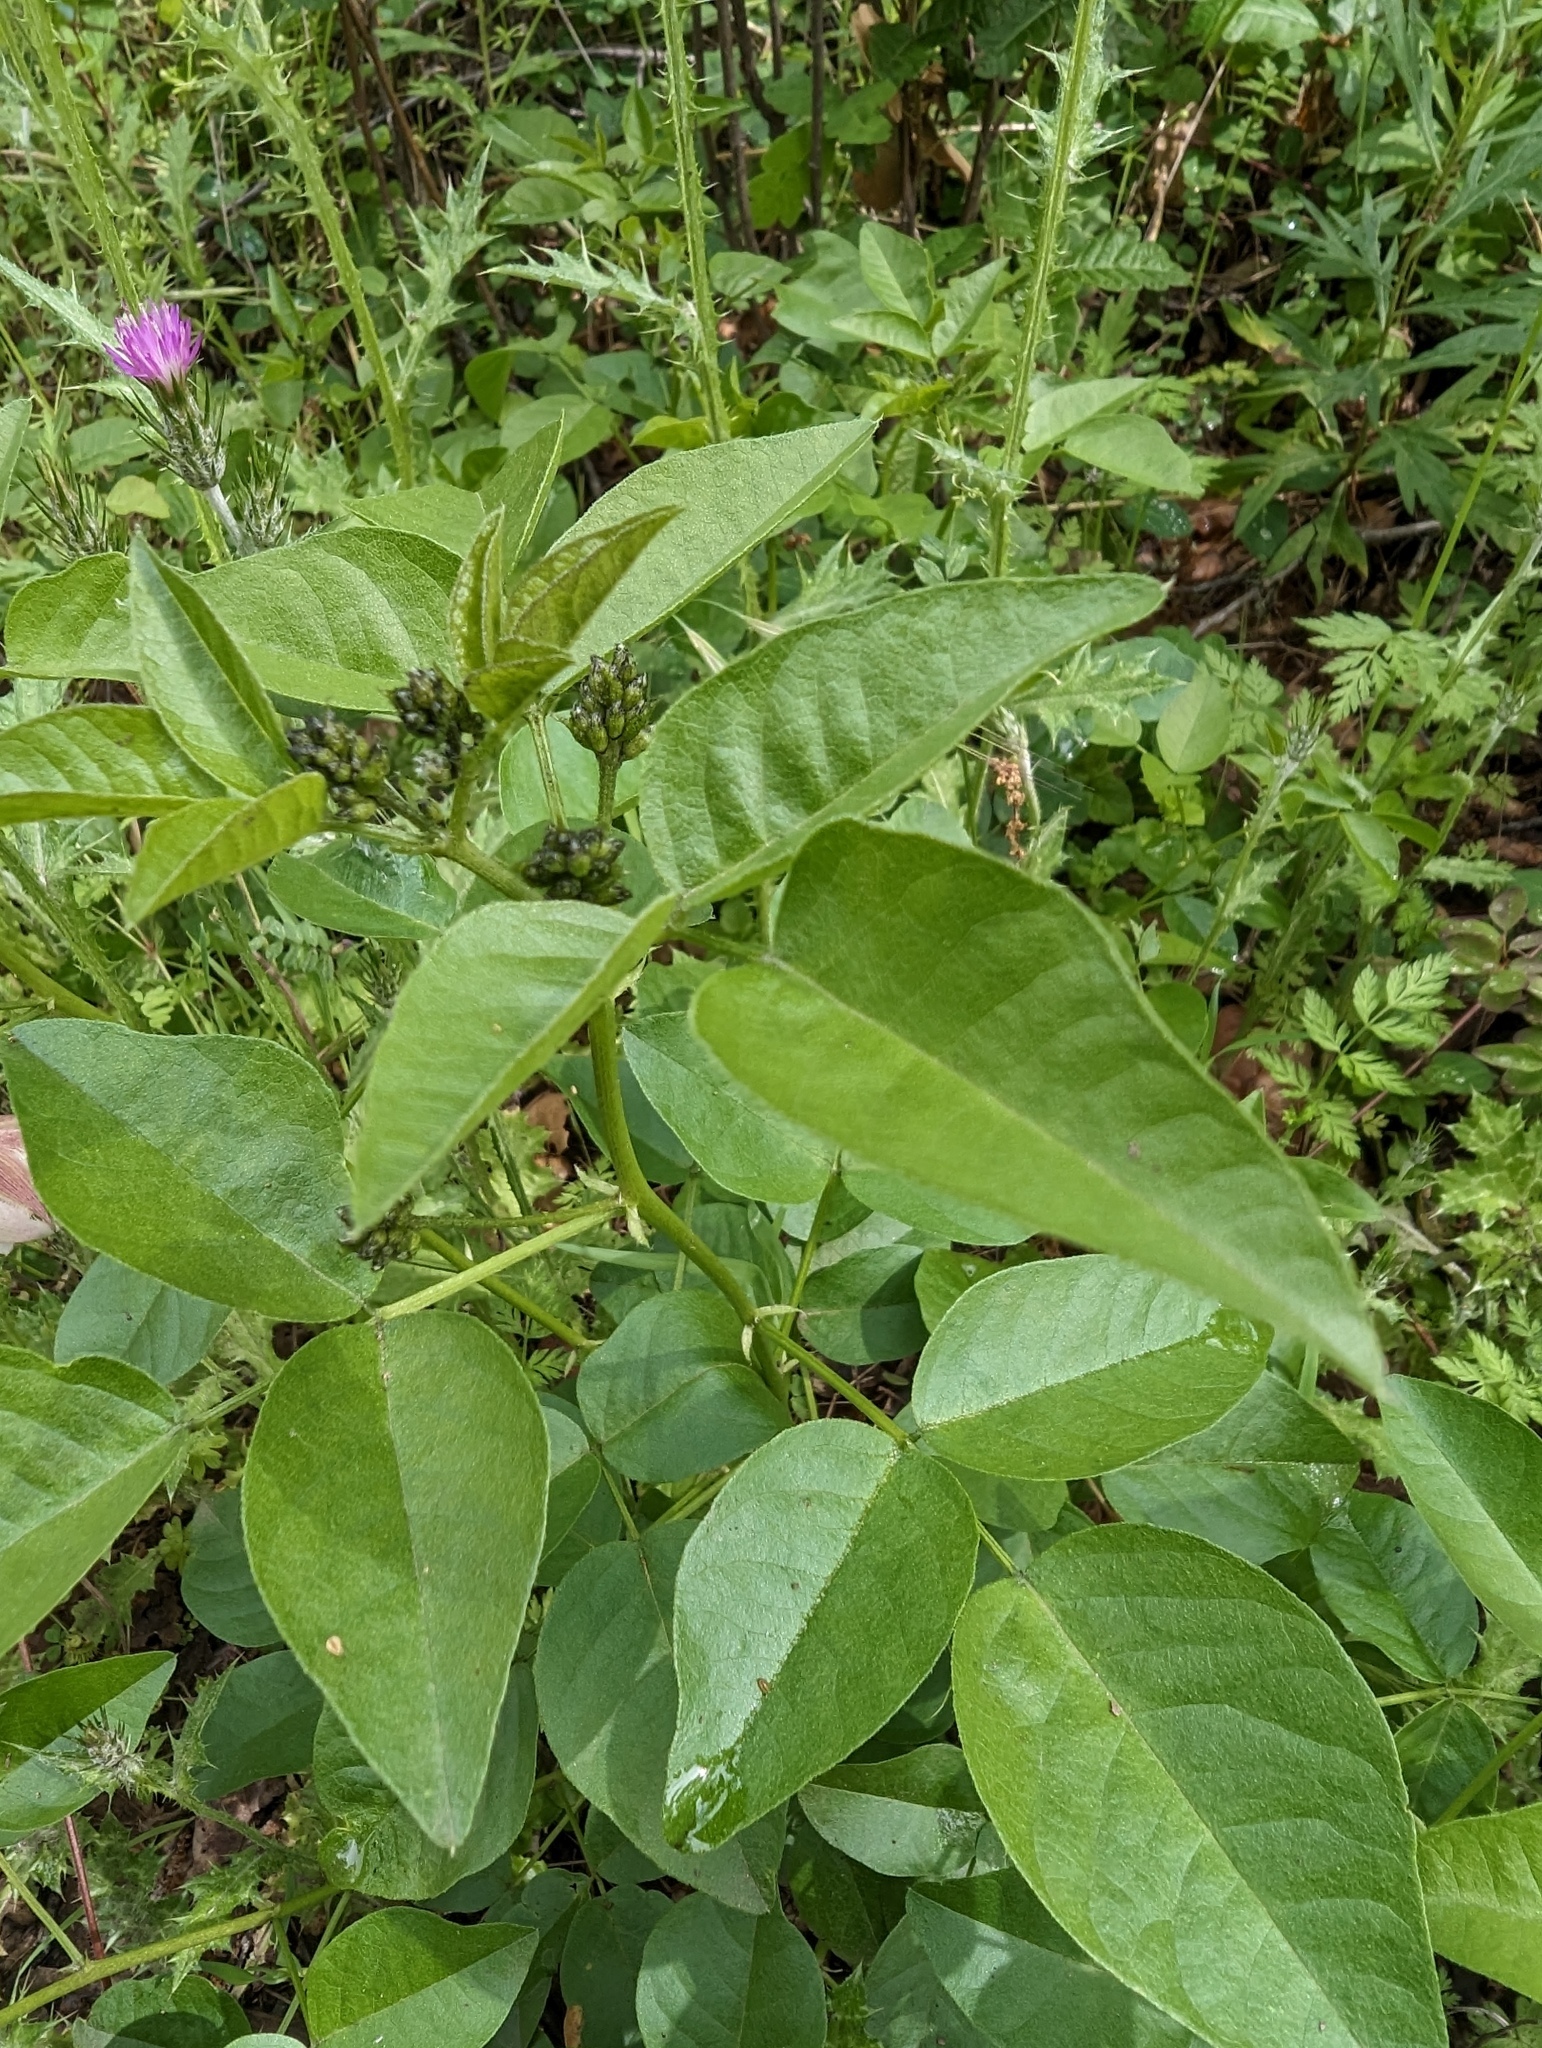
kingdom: Plantae
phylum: Tracheophyta
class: Magnoliopsida
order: Fabales
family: Fabaceae
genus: Rupertia
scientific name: Rupertia physodes
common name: California-tea
